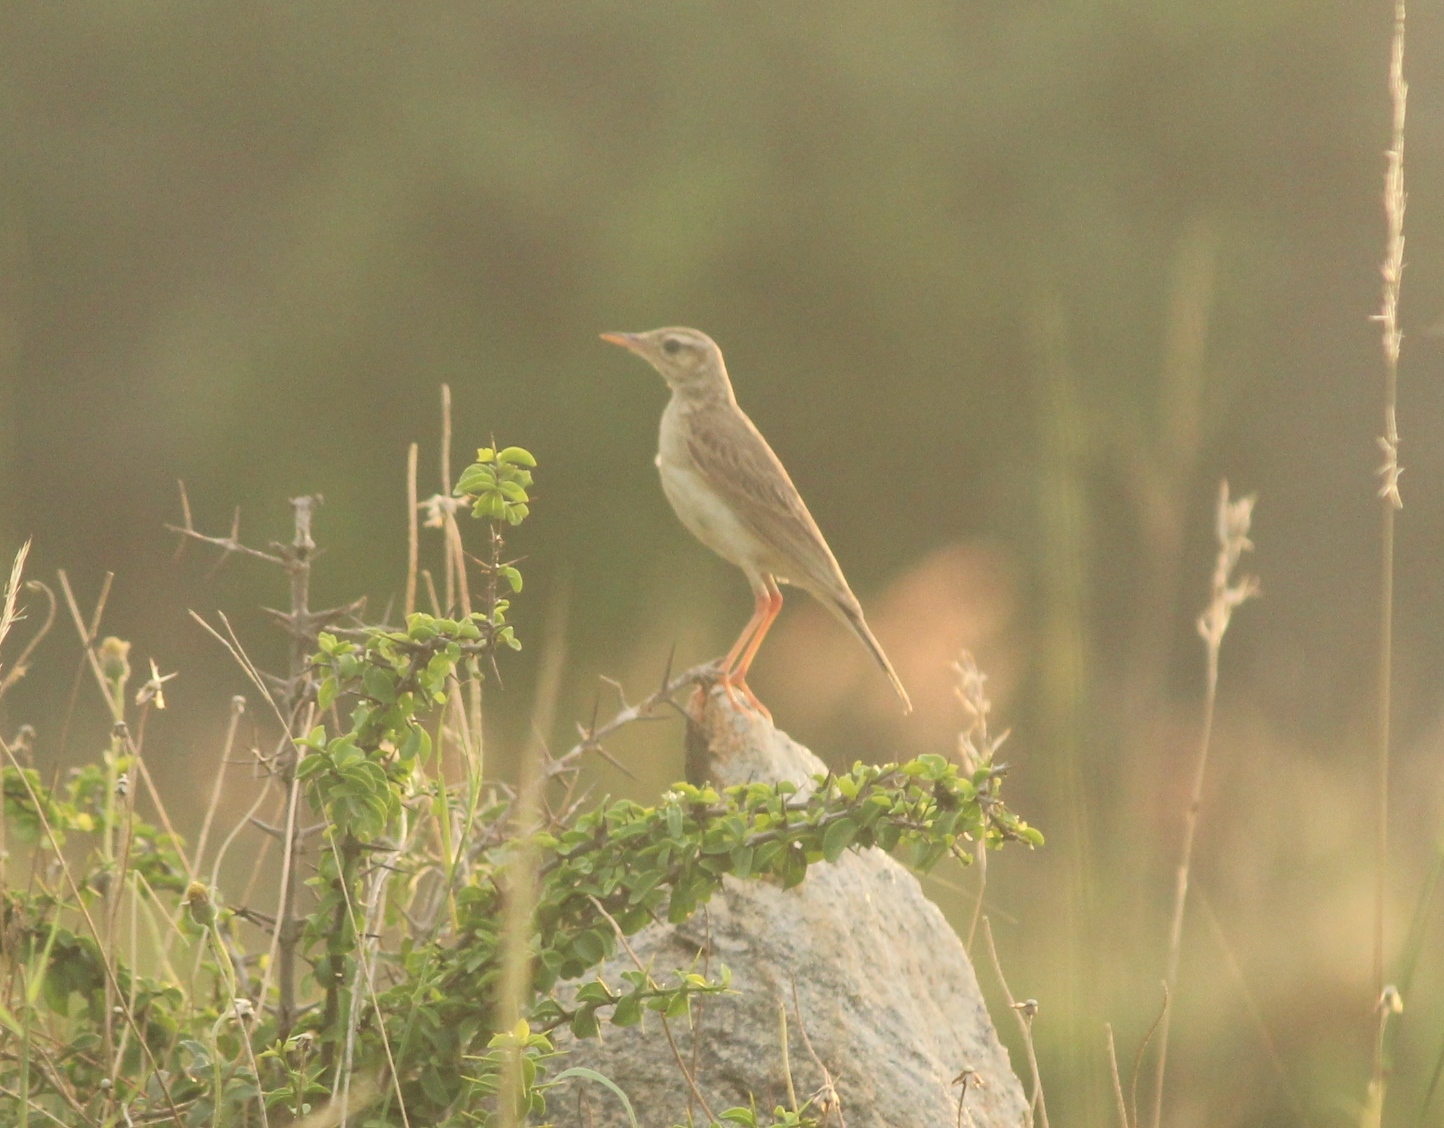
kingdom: Animalia
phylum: Chordata
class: Aves
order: Passeriformes
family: Motacillidae
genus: Anthus
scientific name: Anthus rufulus
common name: Paddyfield pipit
